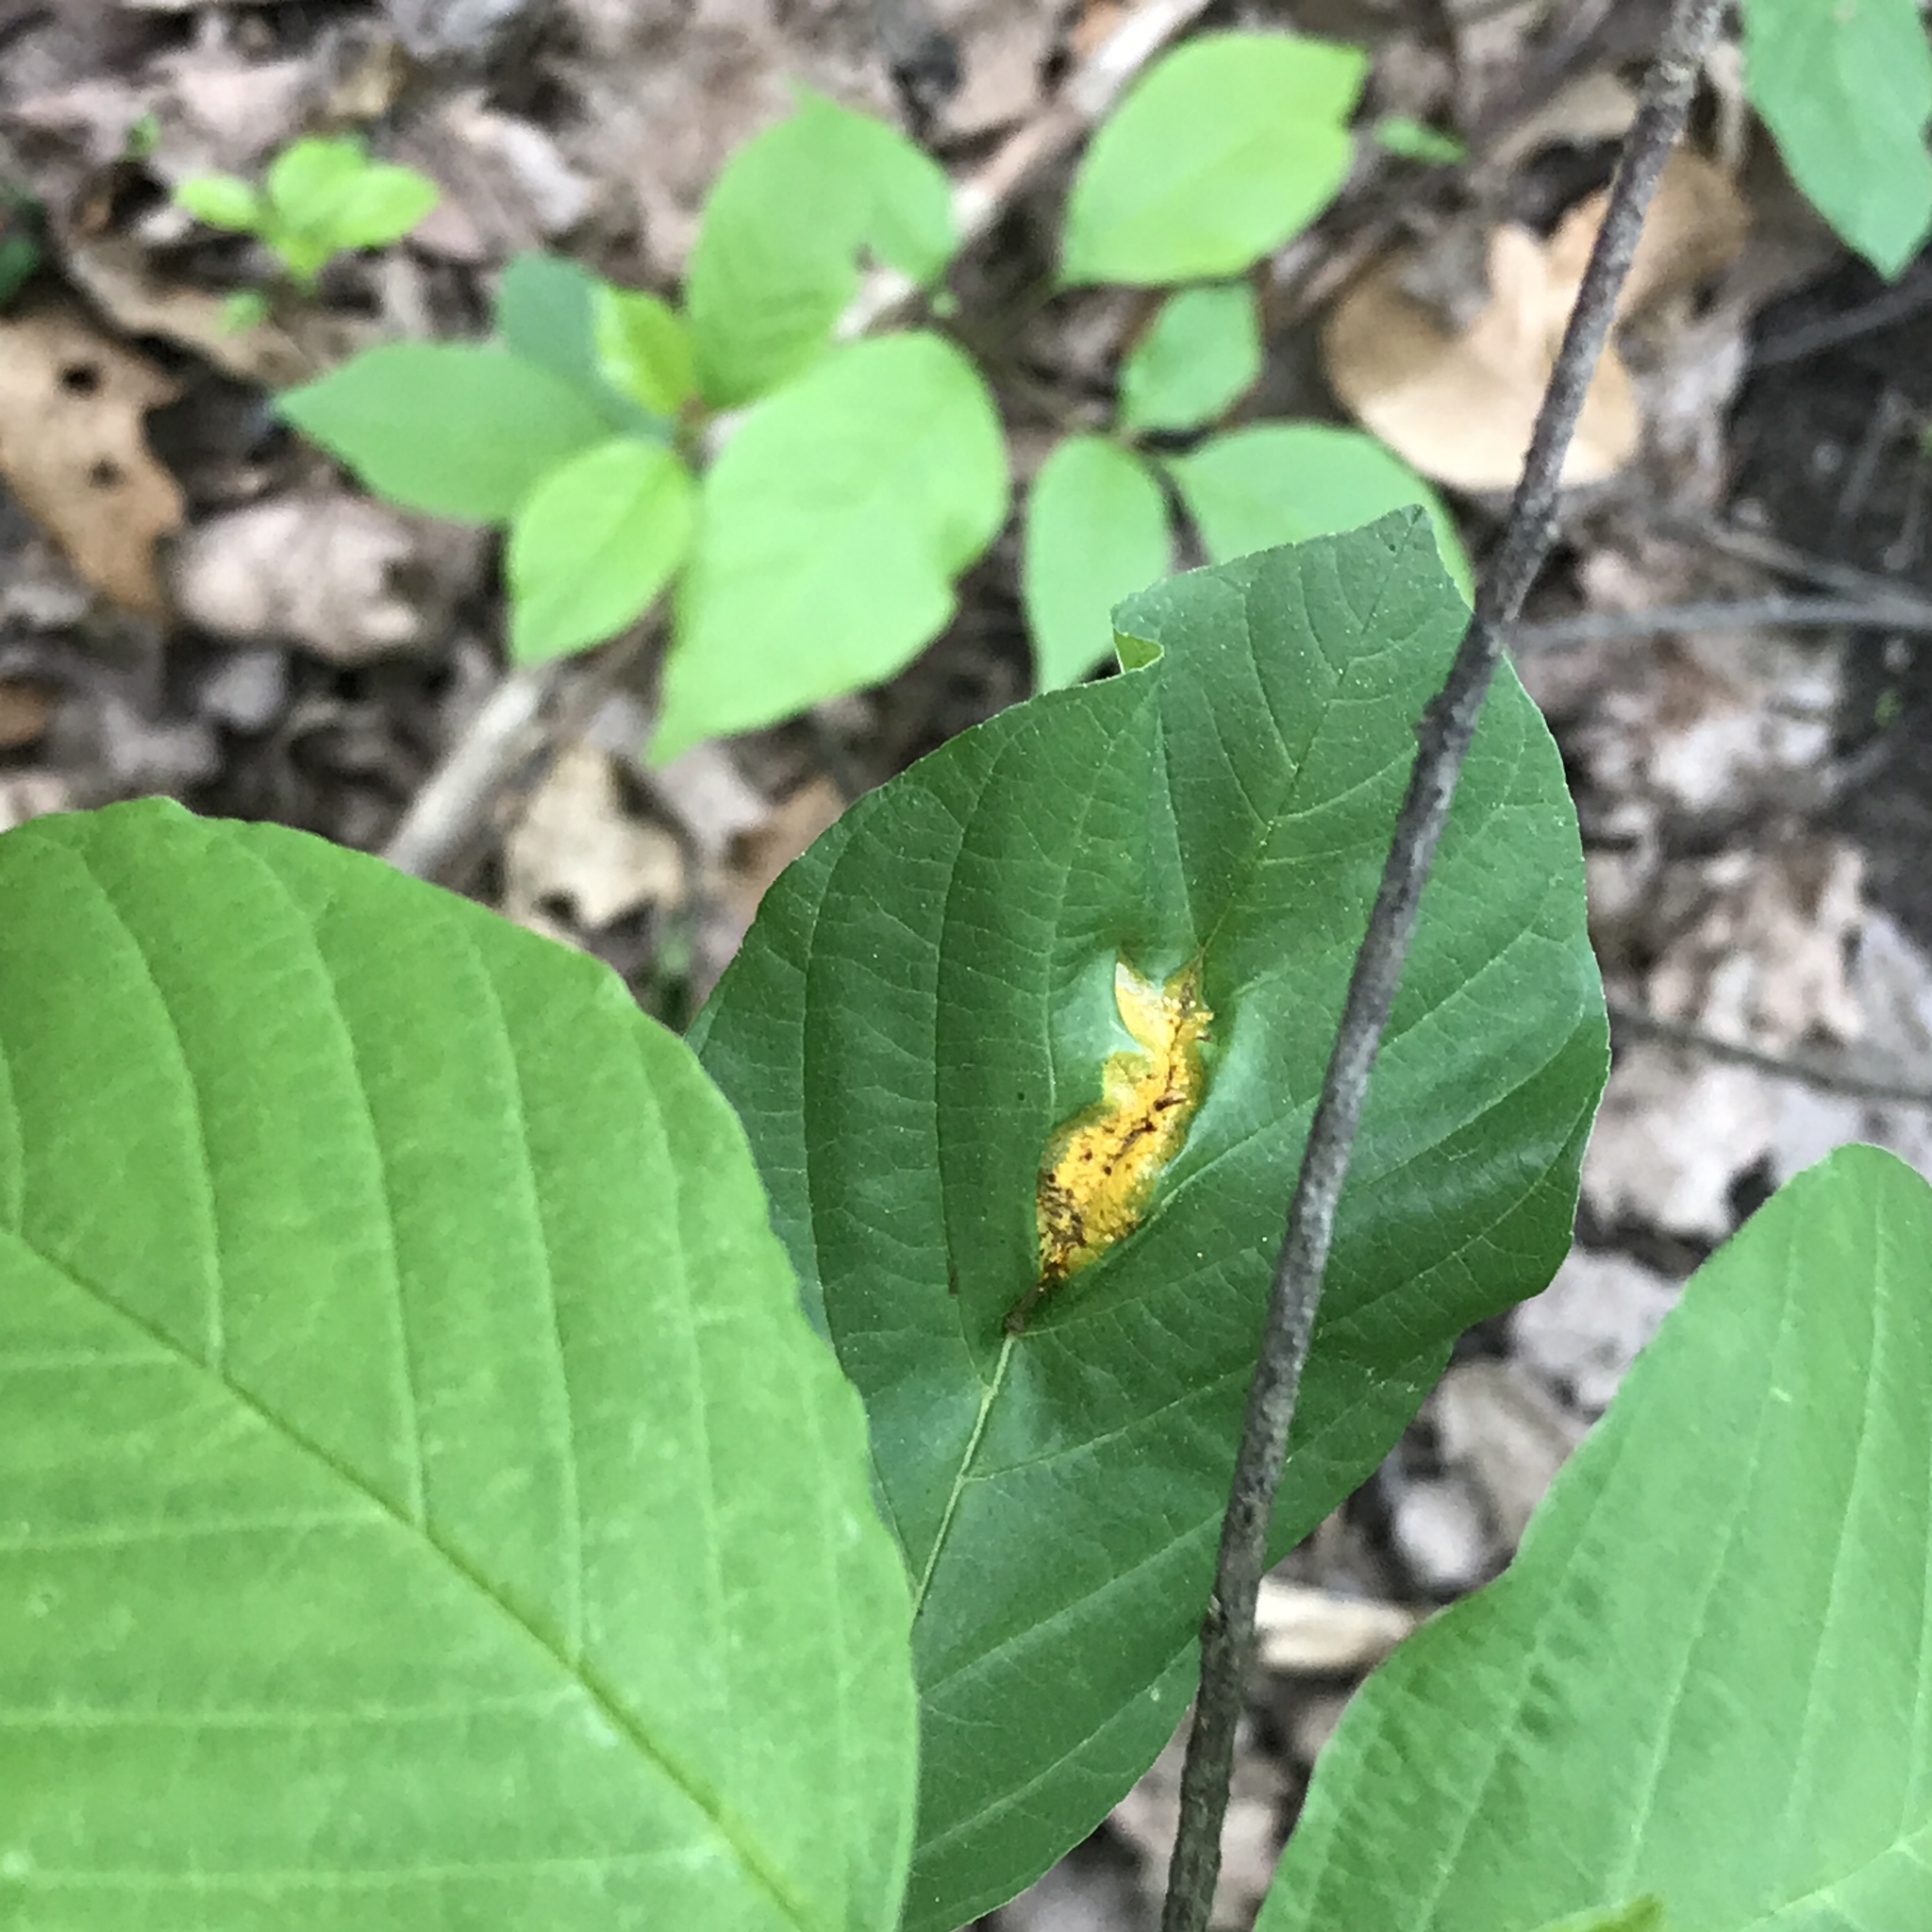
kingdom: Fungi
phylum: Basidiomycota
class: Pucciniomycetes
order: Pucciniales
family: Pucciniaceae
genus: Puccinia
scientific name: Puccinia coronata
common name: Crown rust
